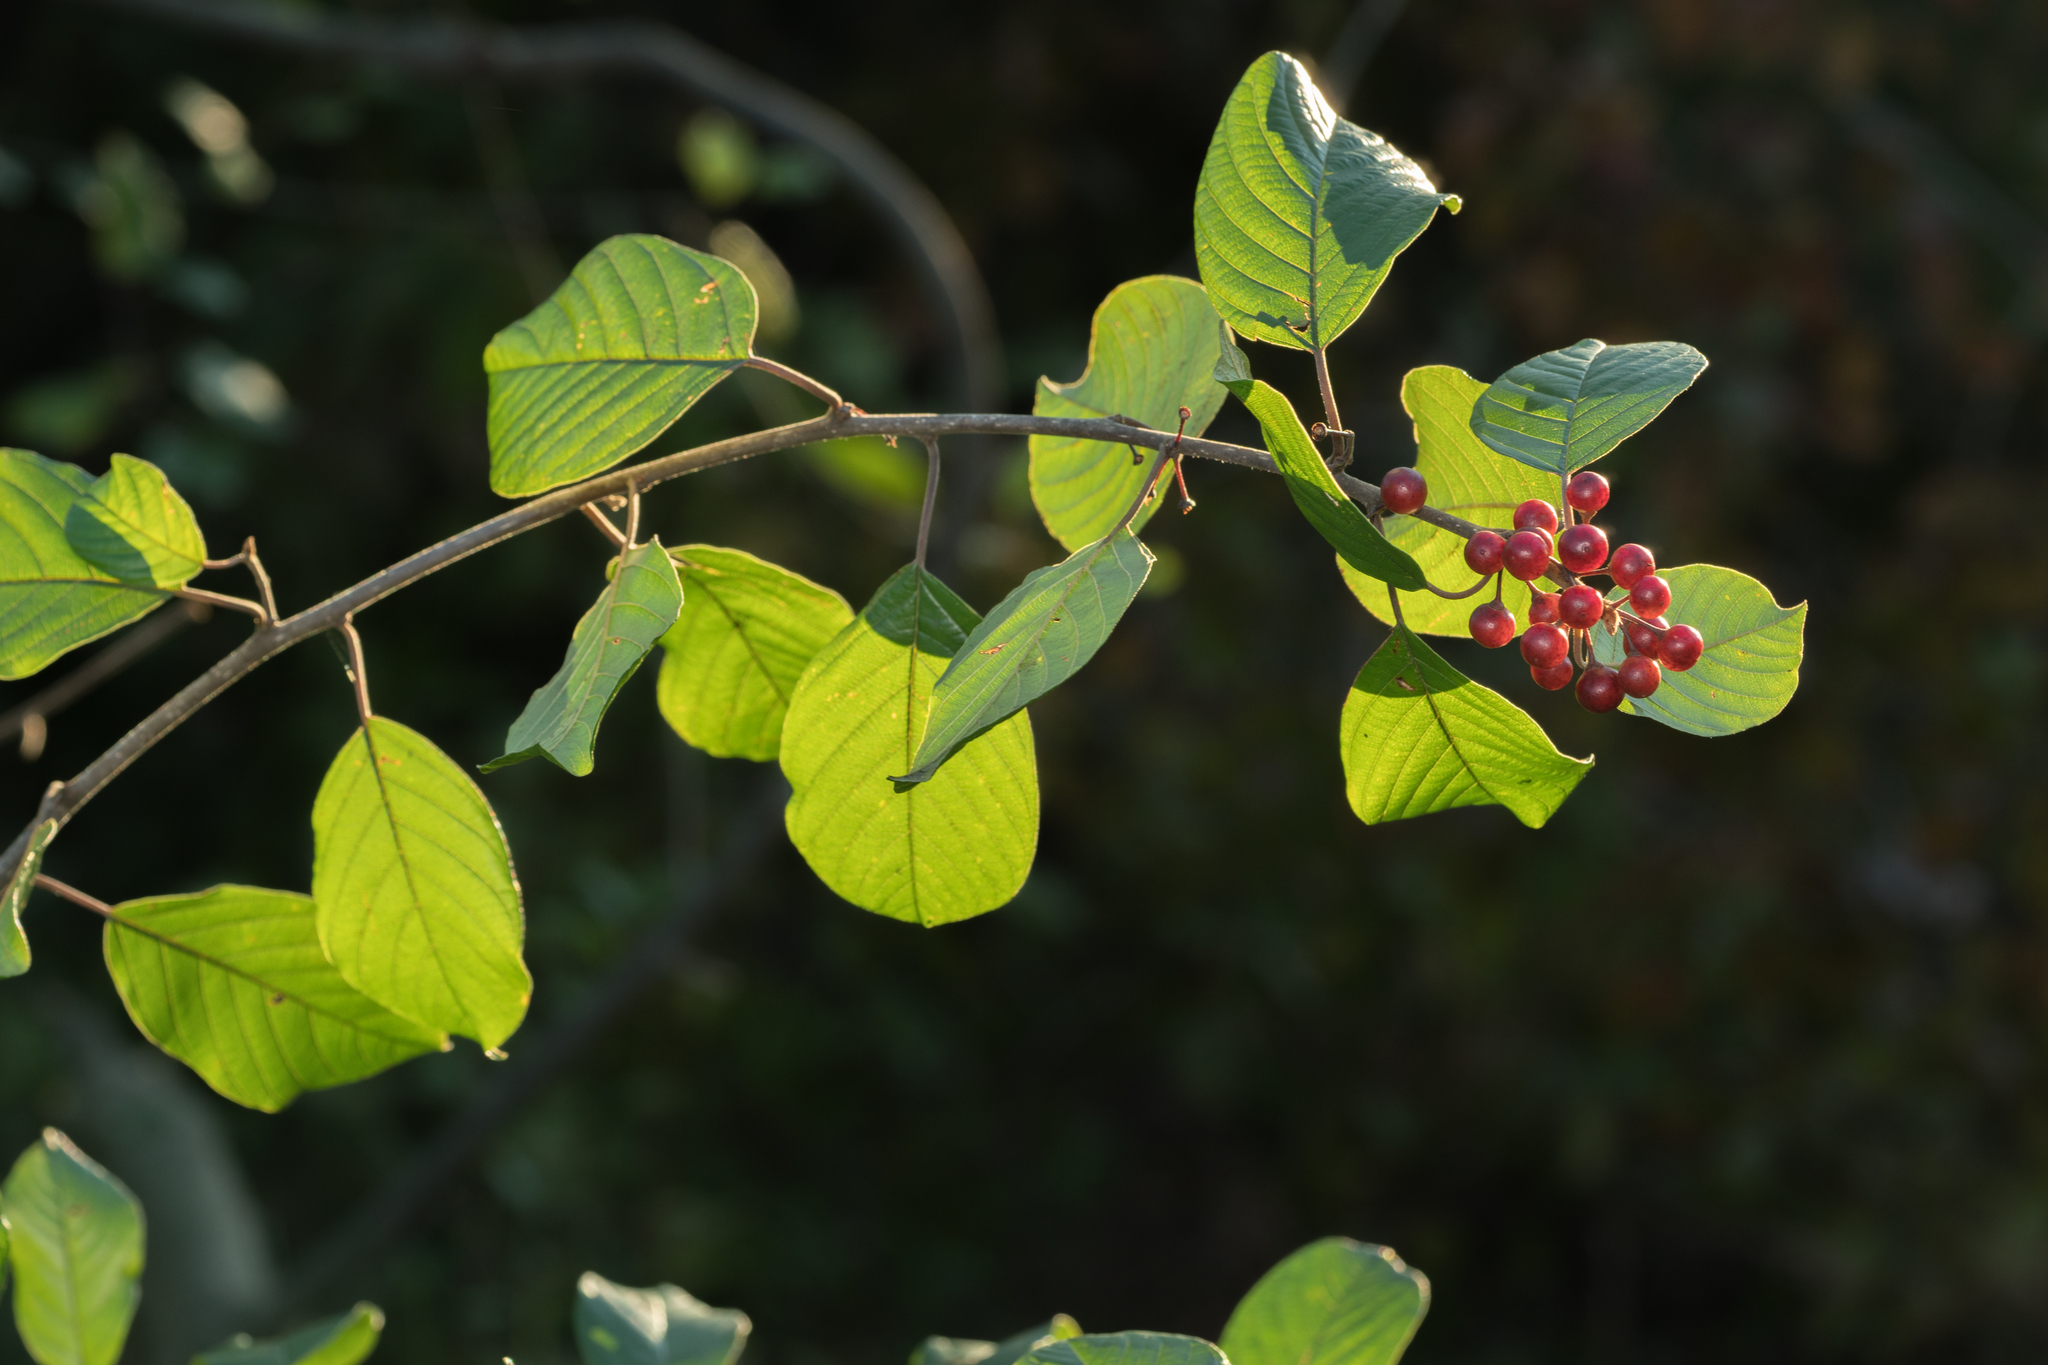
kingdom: Plantae
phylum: Tracheophyta
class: Magnoliopsida
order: Rosales
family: Rhamnaceae
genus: Frangula
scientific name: Frangula alnus
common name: Alder buckthorn
